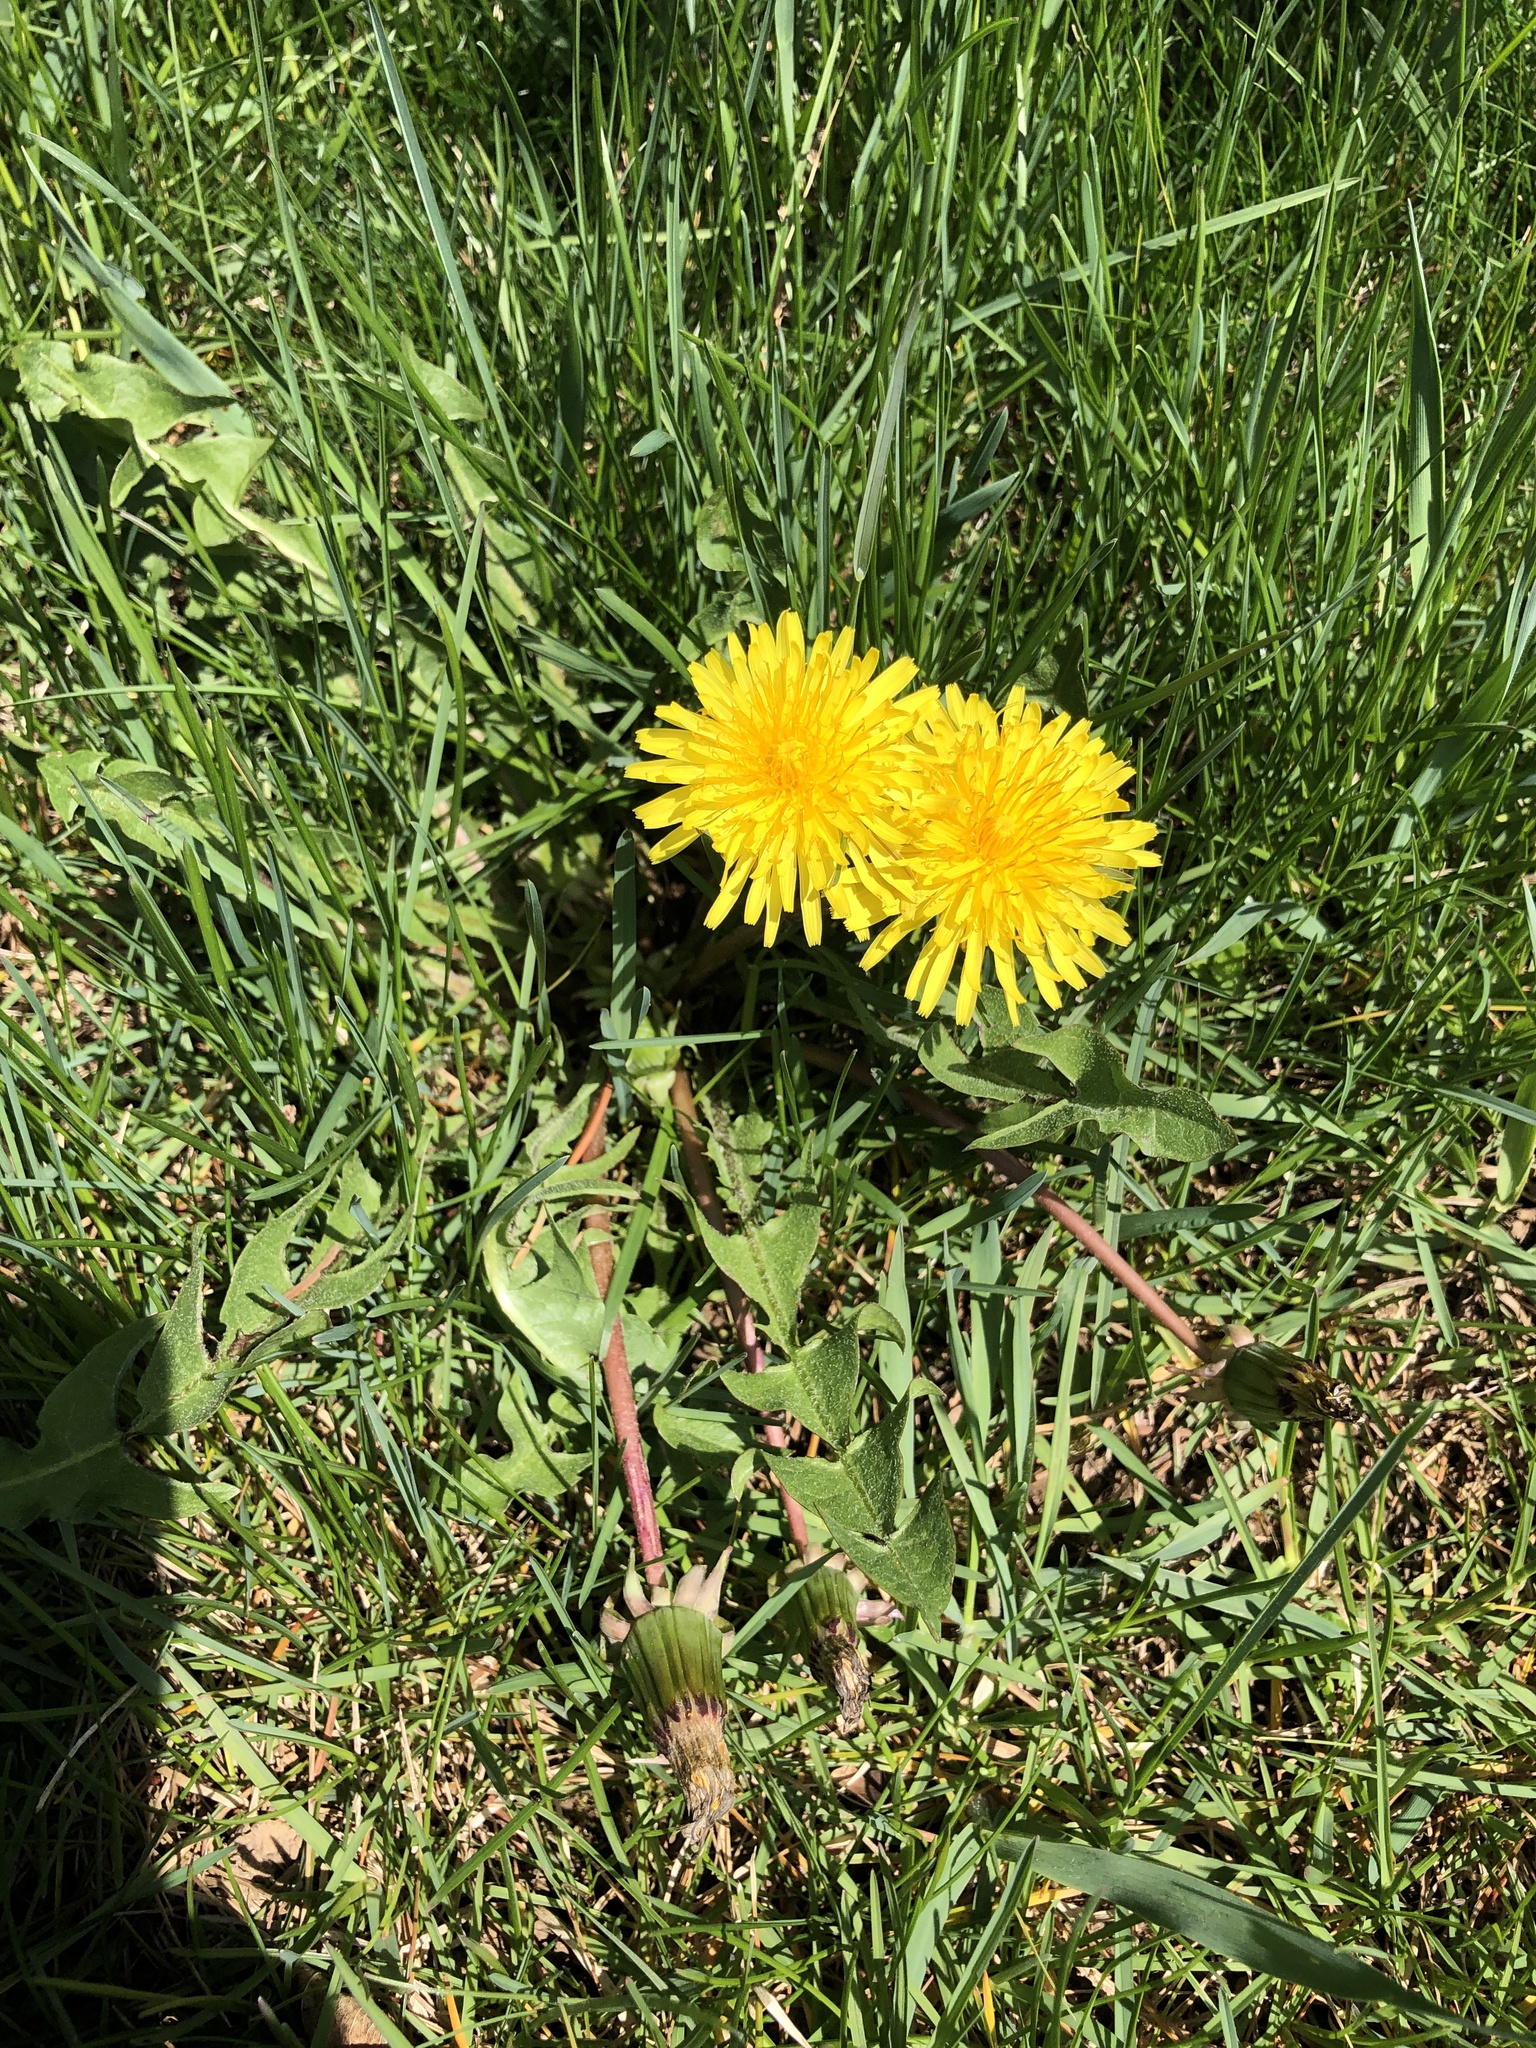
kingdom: Plantae
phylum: Tracheophyta
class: Magnoliopsida
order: Asterales
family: Asteraceae
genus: Taraxacum
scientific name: Taraxacum officinale
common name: Common dandelion
